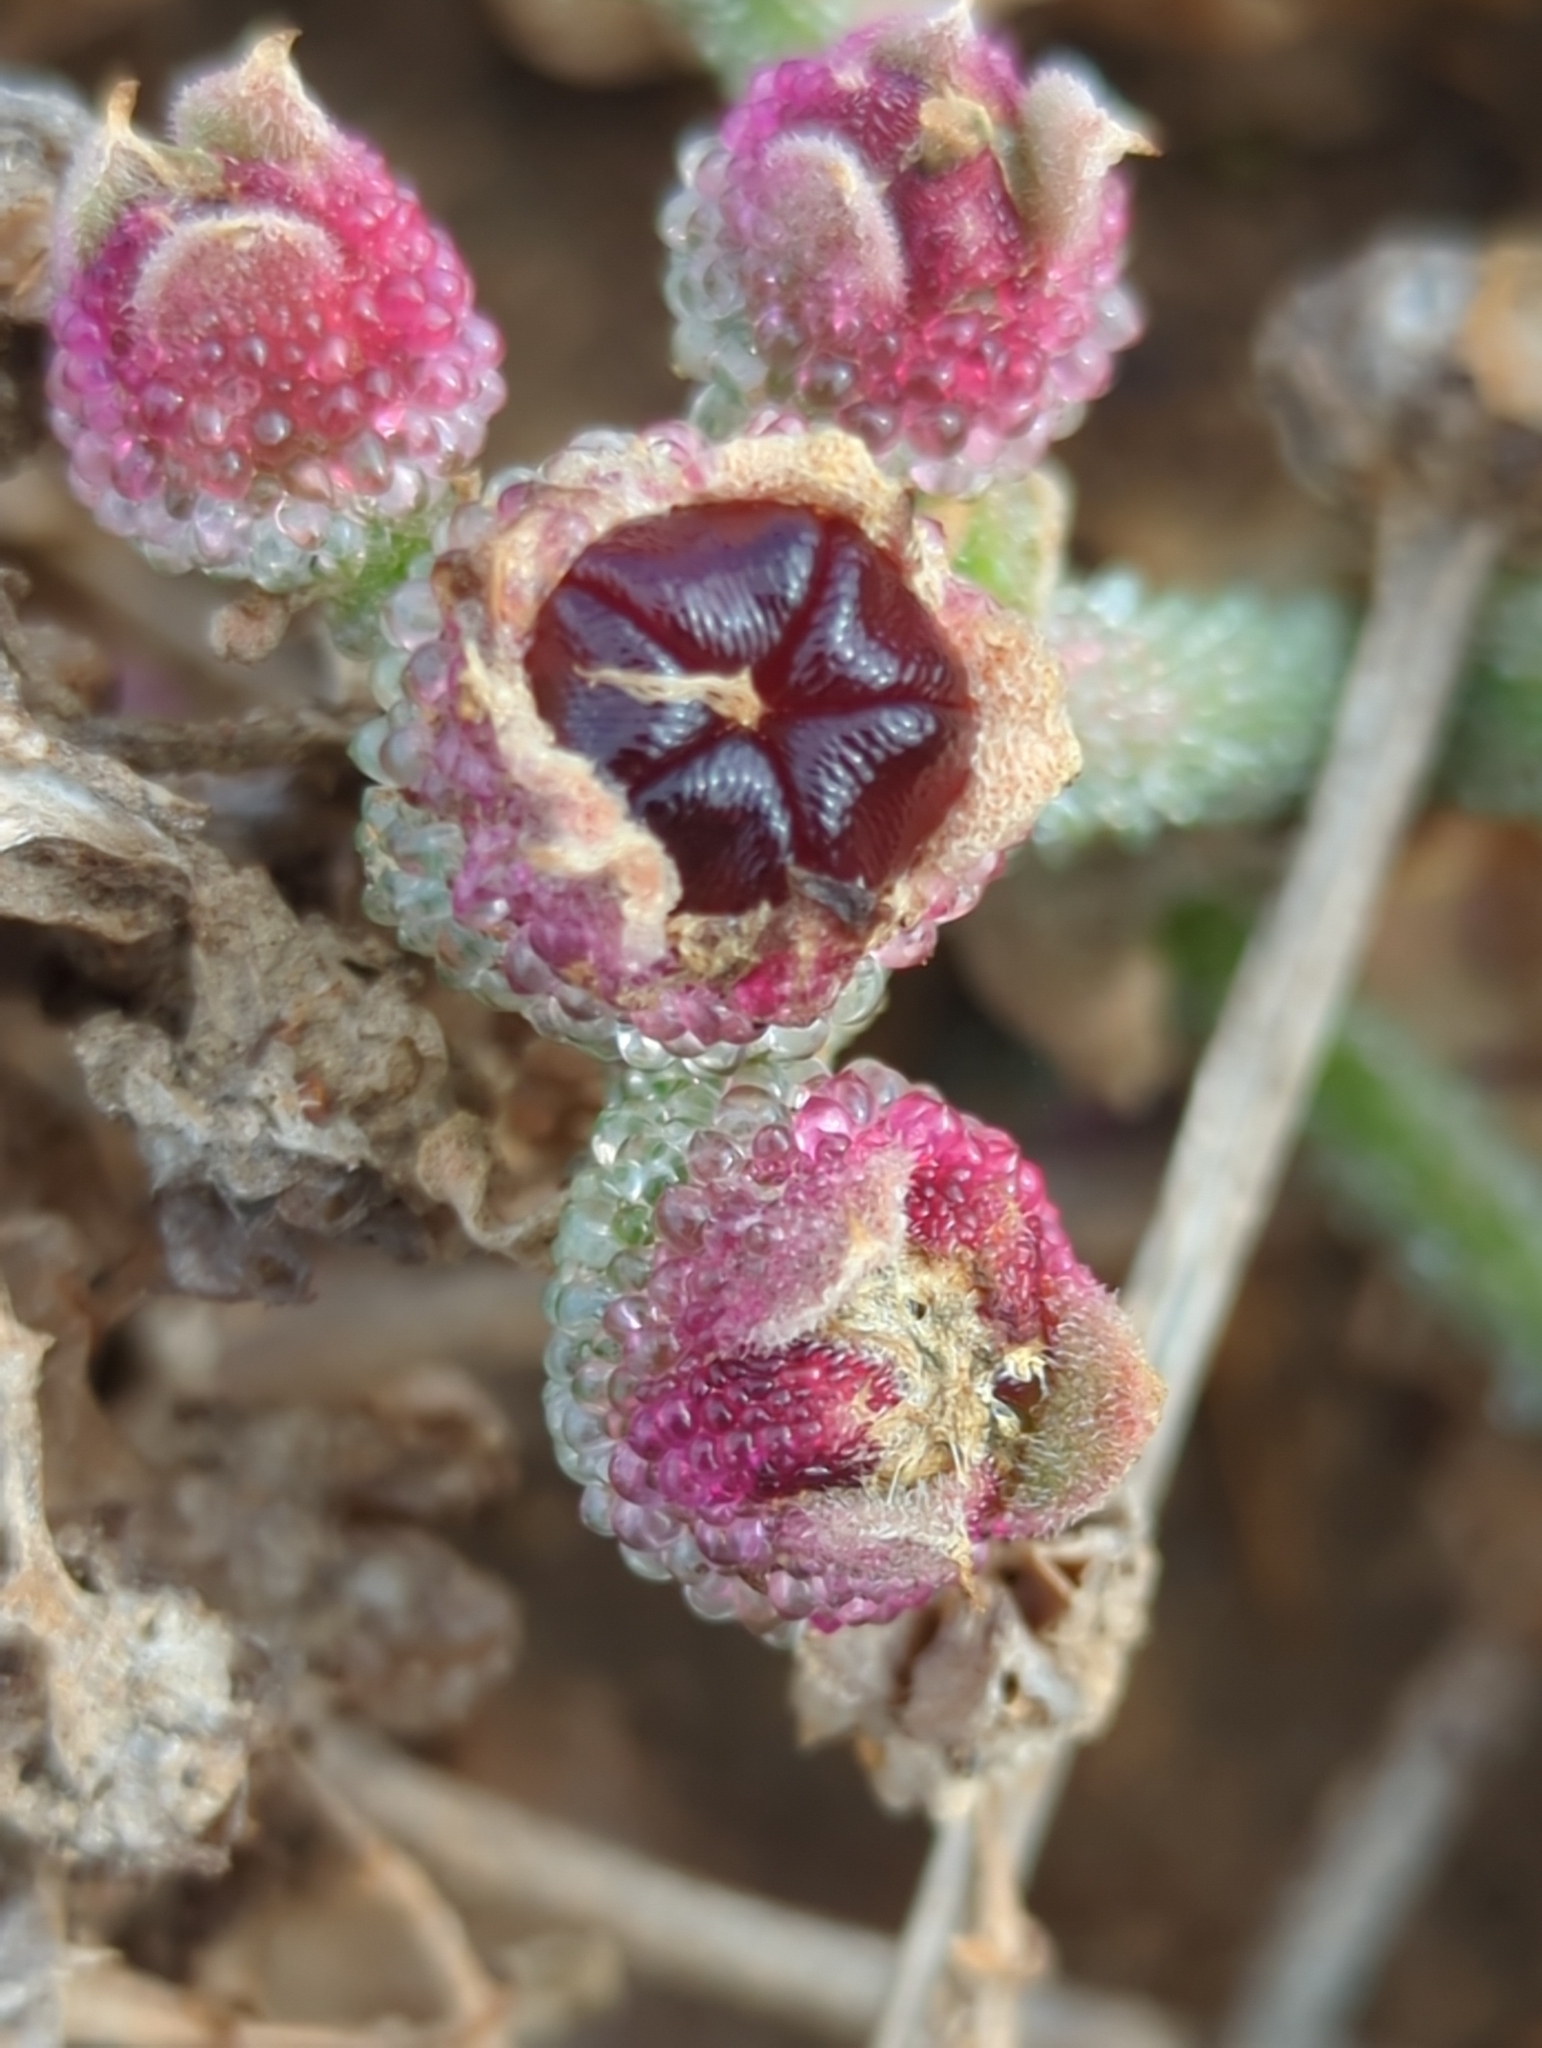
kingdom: Plantae
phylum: Tracheophyta
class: Magnoliopsida
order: Caryophyllales
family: Aizoaceae
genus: Mesembryanthemum
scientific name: Mesembryanthemum crystallinum
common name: Common iceplant
